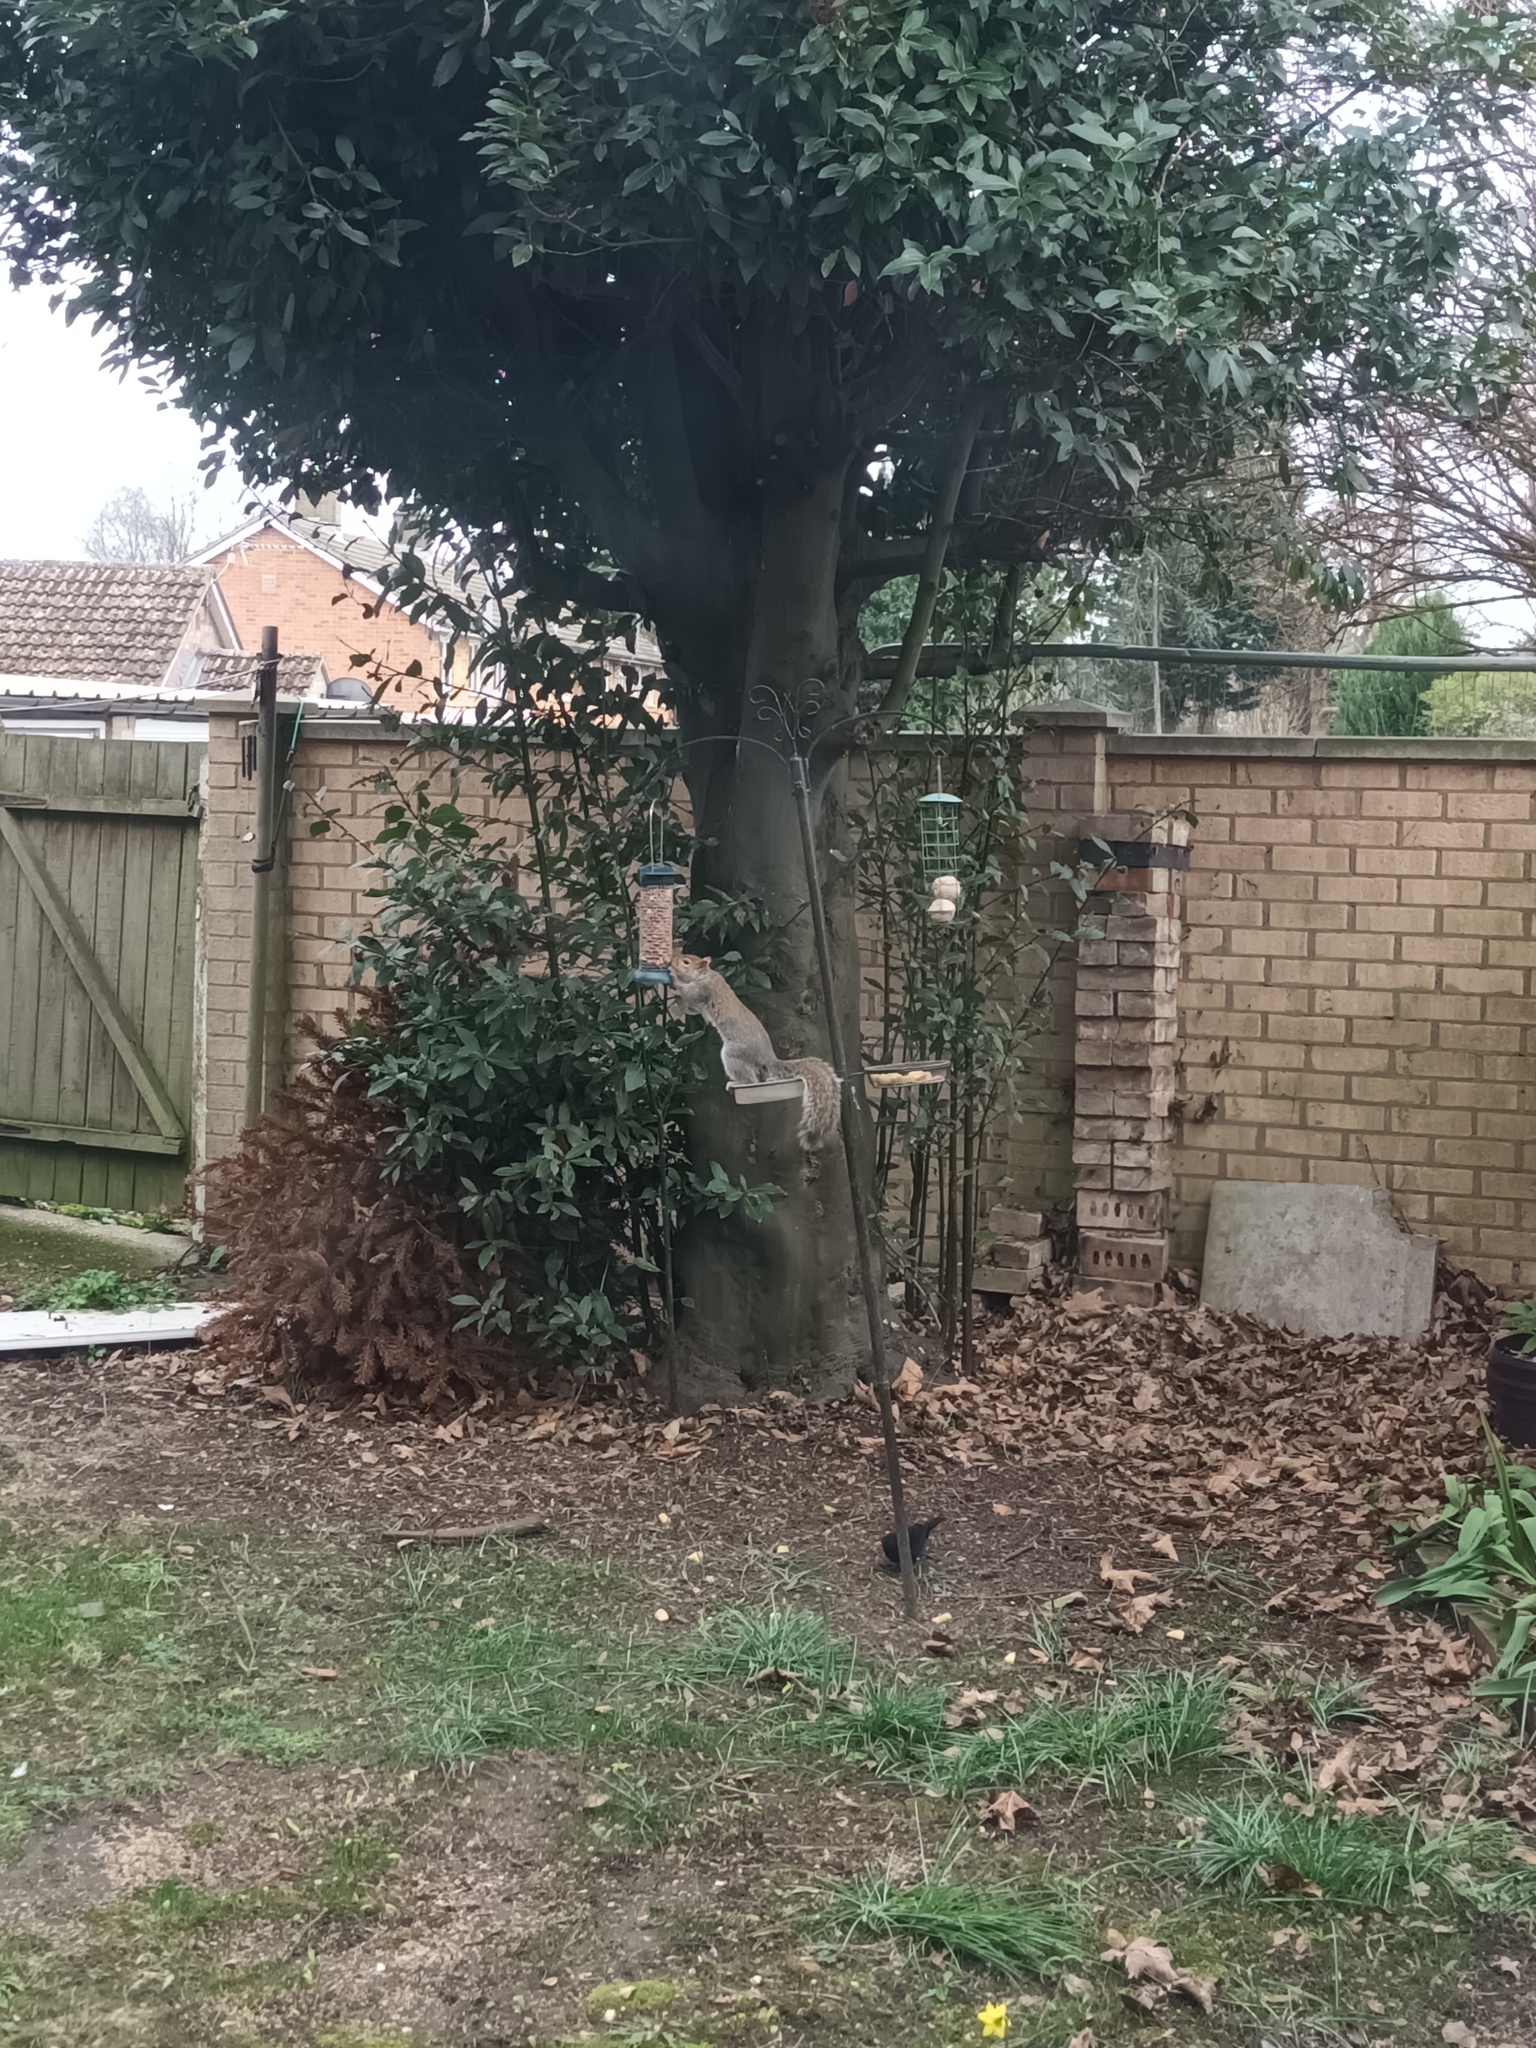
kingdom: Animalia
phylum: Chordata
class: Mammalia
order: Rodentia
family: Sciuridae
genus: Sciurus
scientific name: Sciurus carolinensis
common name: Eastern gray squirrel
